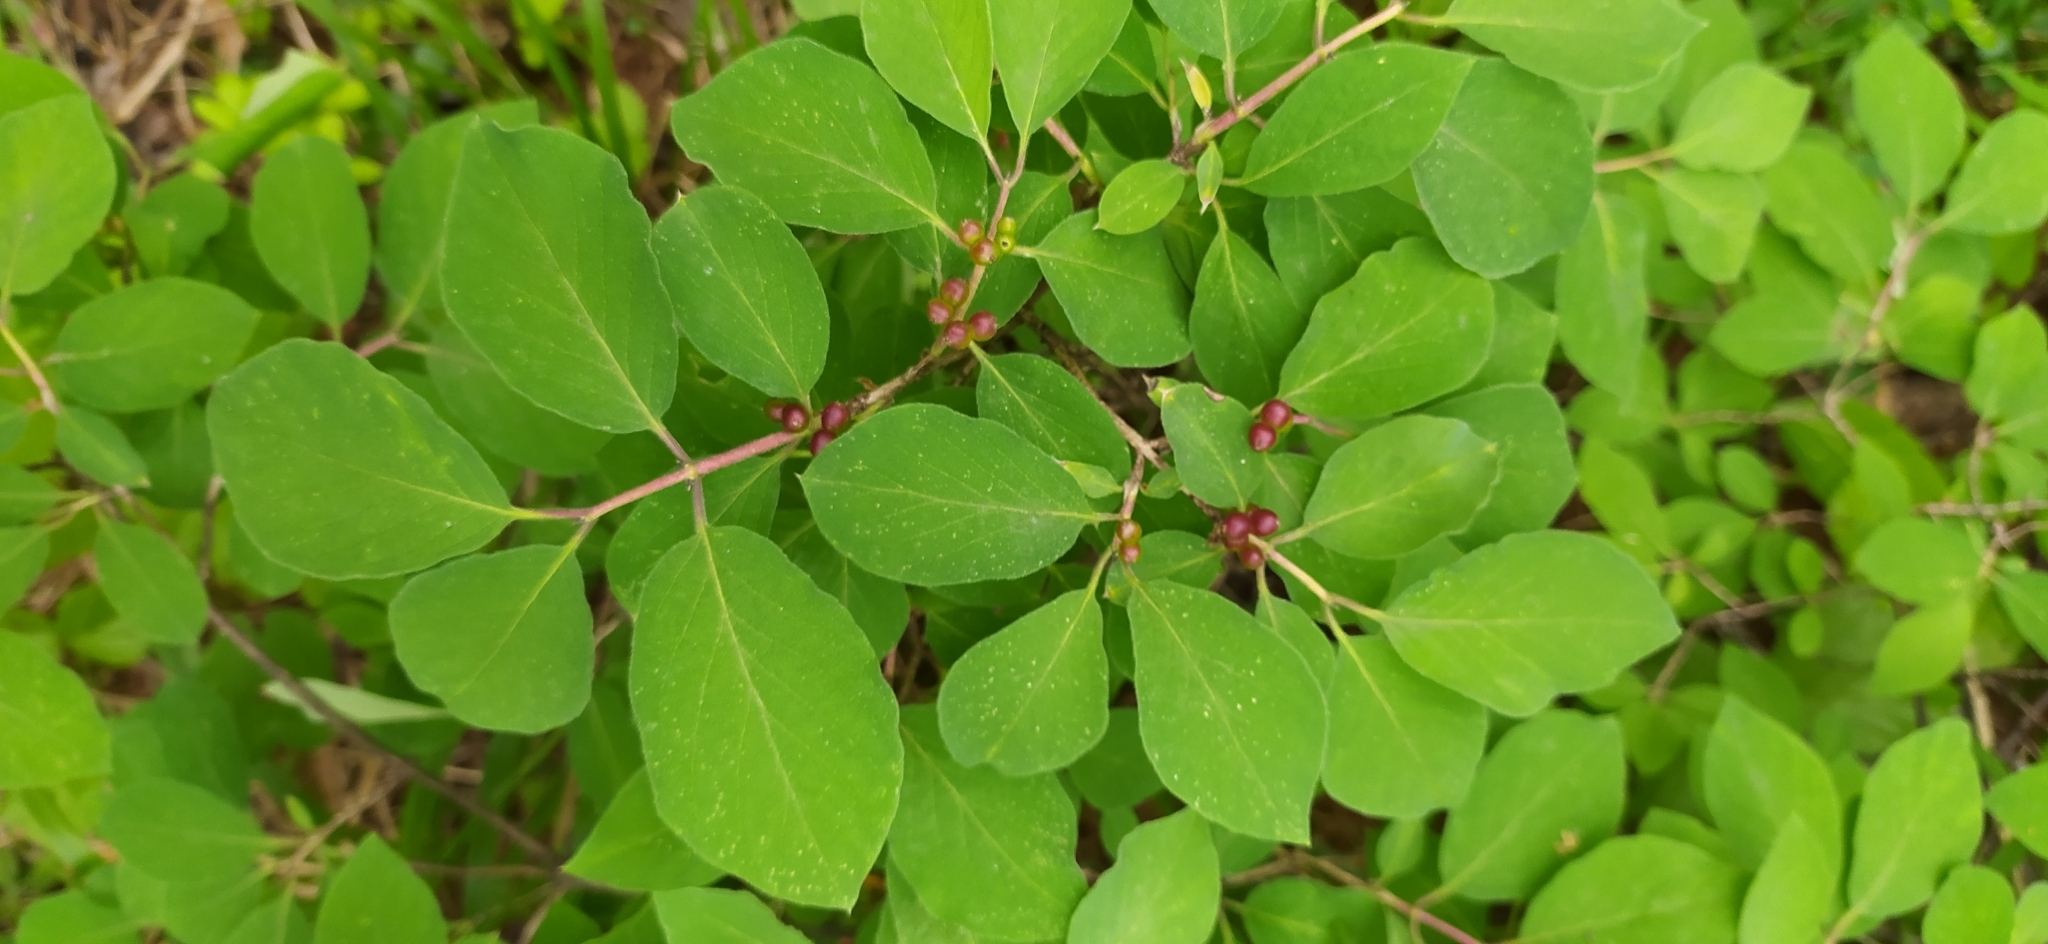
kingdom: Plantae
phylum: Tracheophyta
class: Magnoliopsida
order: Dipsacales
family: Caprifoliaceae
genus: Lonicera
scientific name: Lonicera xylosteum
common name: Fly honeysuckle
